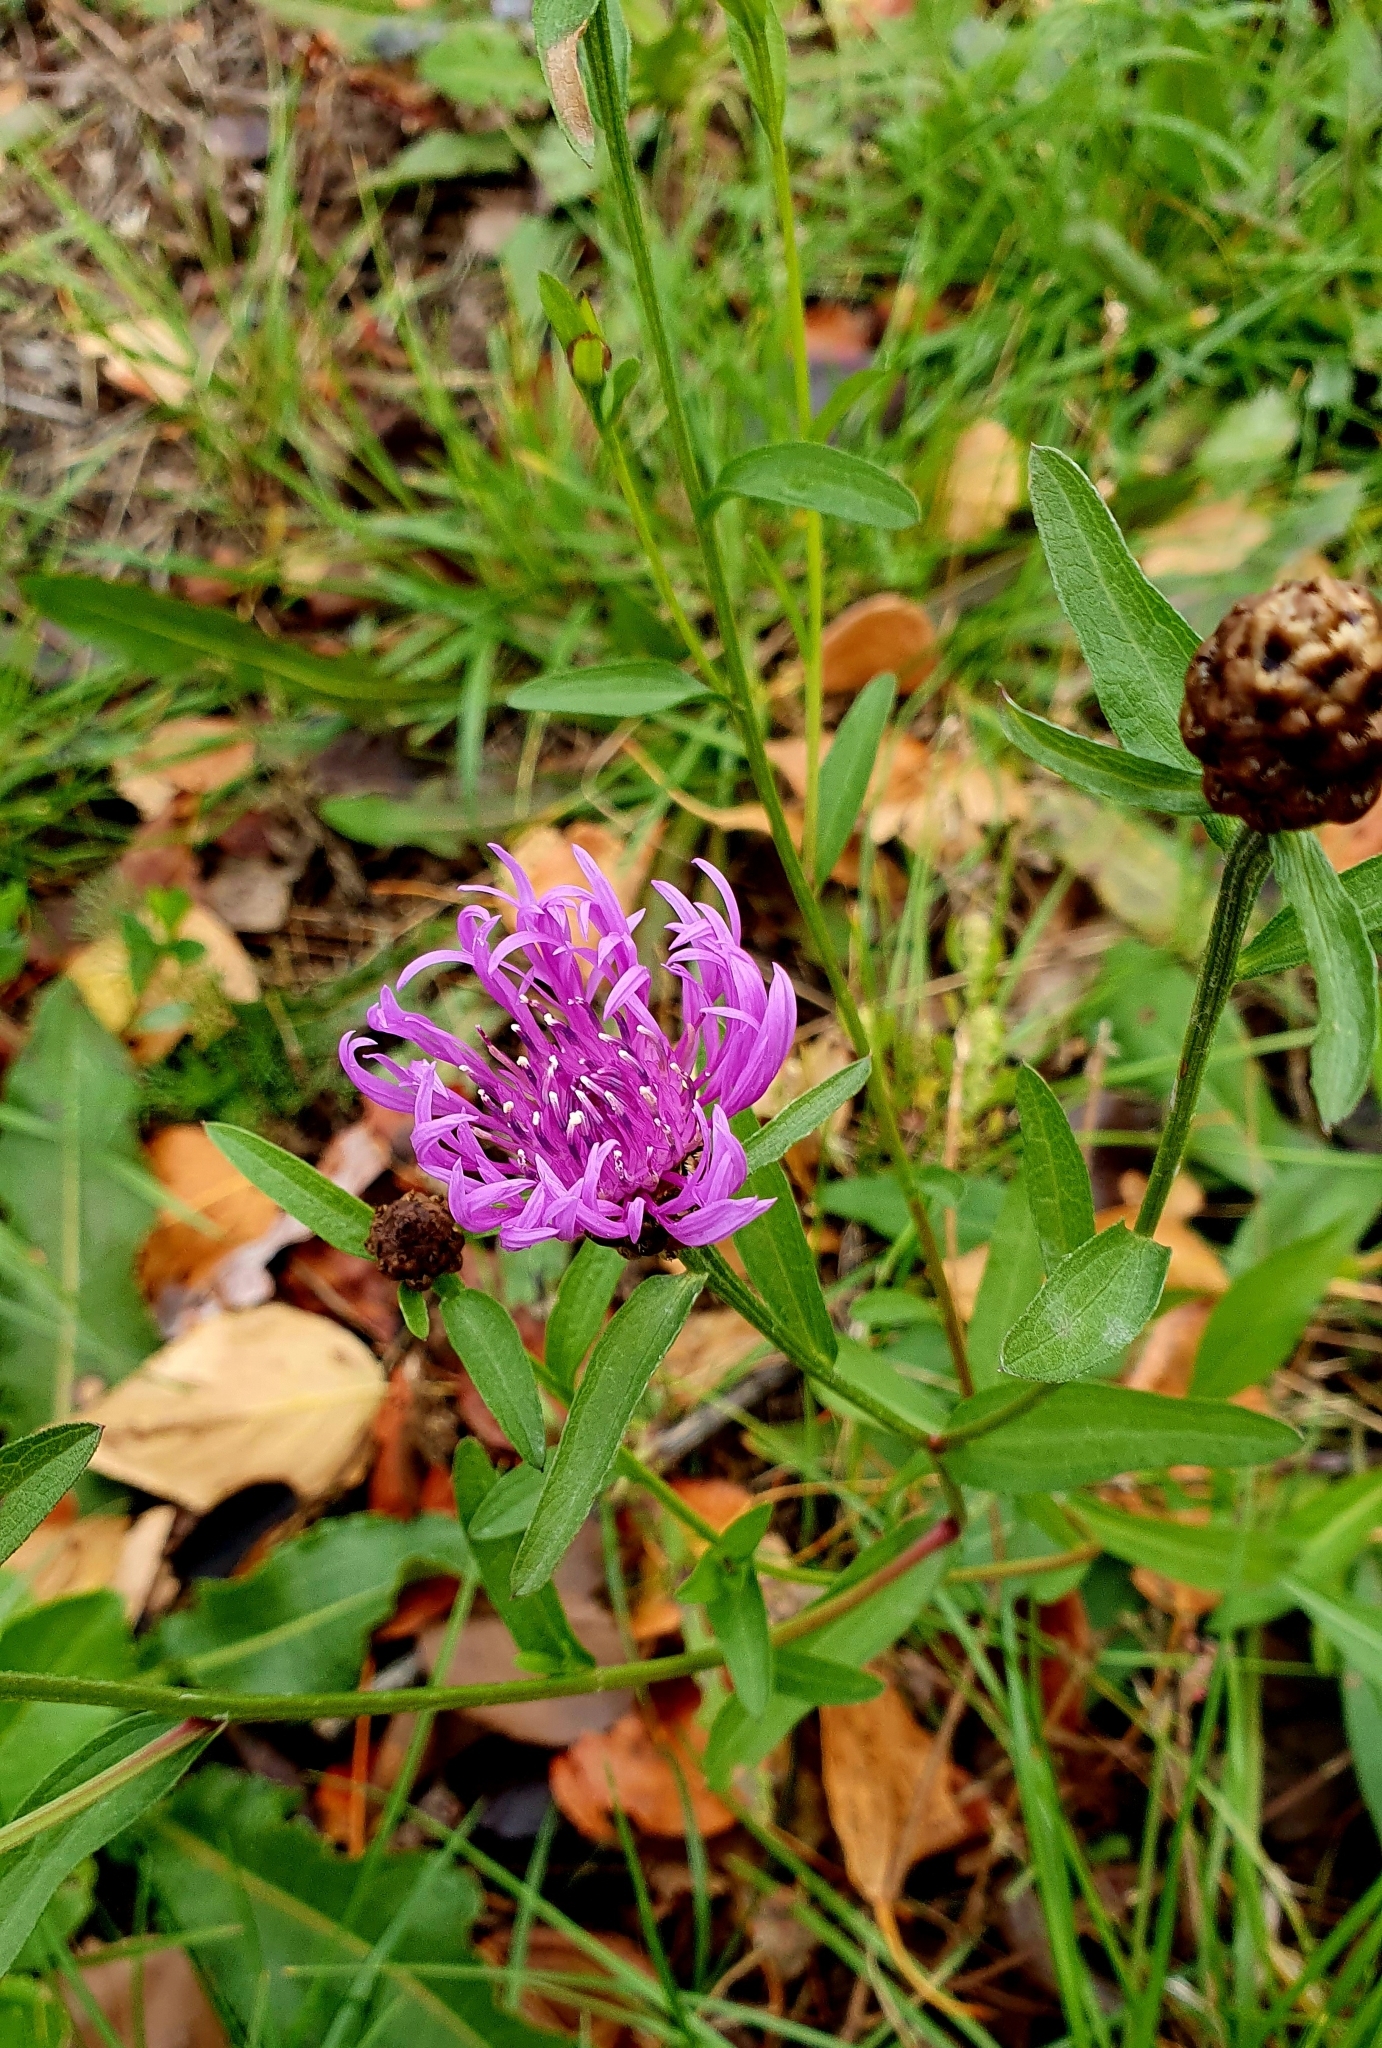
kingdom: Plantae
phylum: Tracheophyta
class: Magnoliopsida
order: Asterales
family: Asteraceae
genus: Centaurea
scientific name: Centaurea jacea
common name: Brown knapweed
